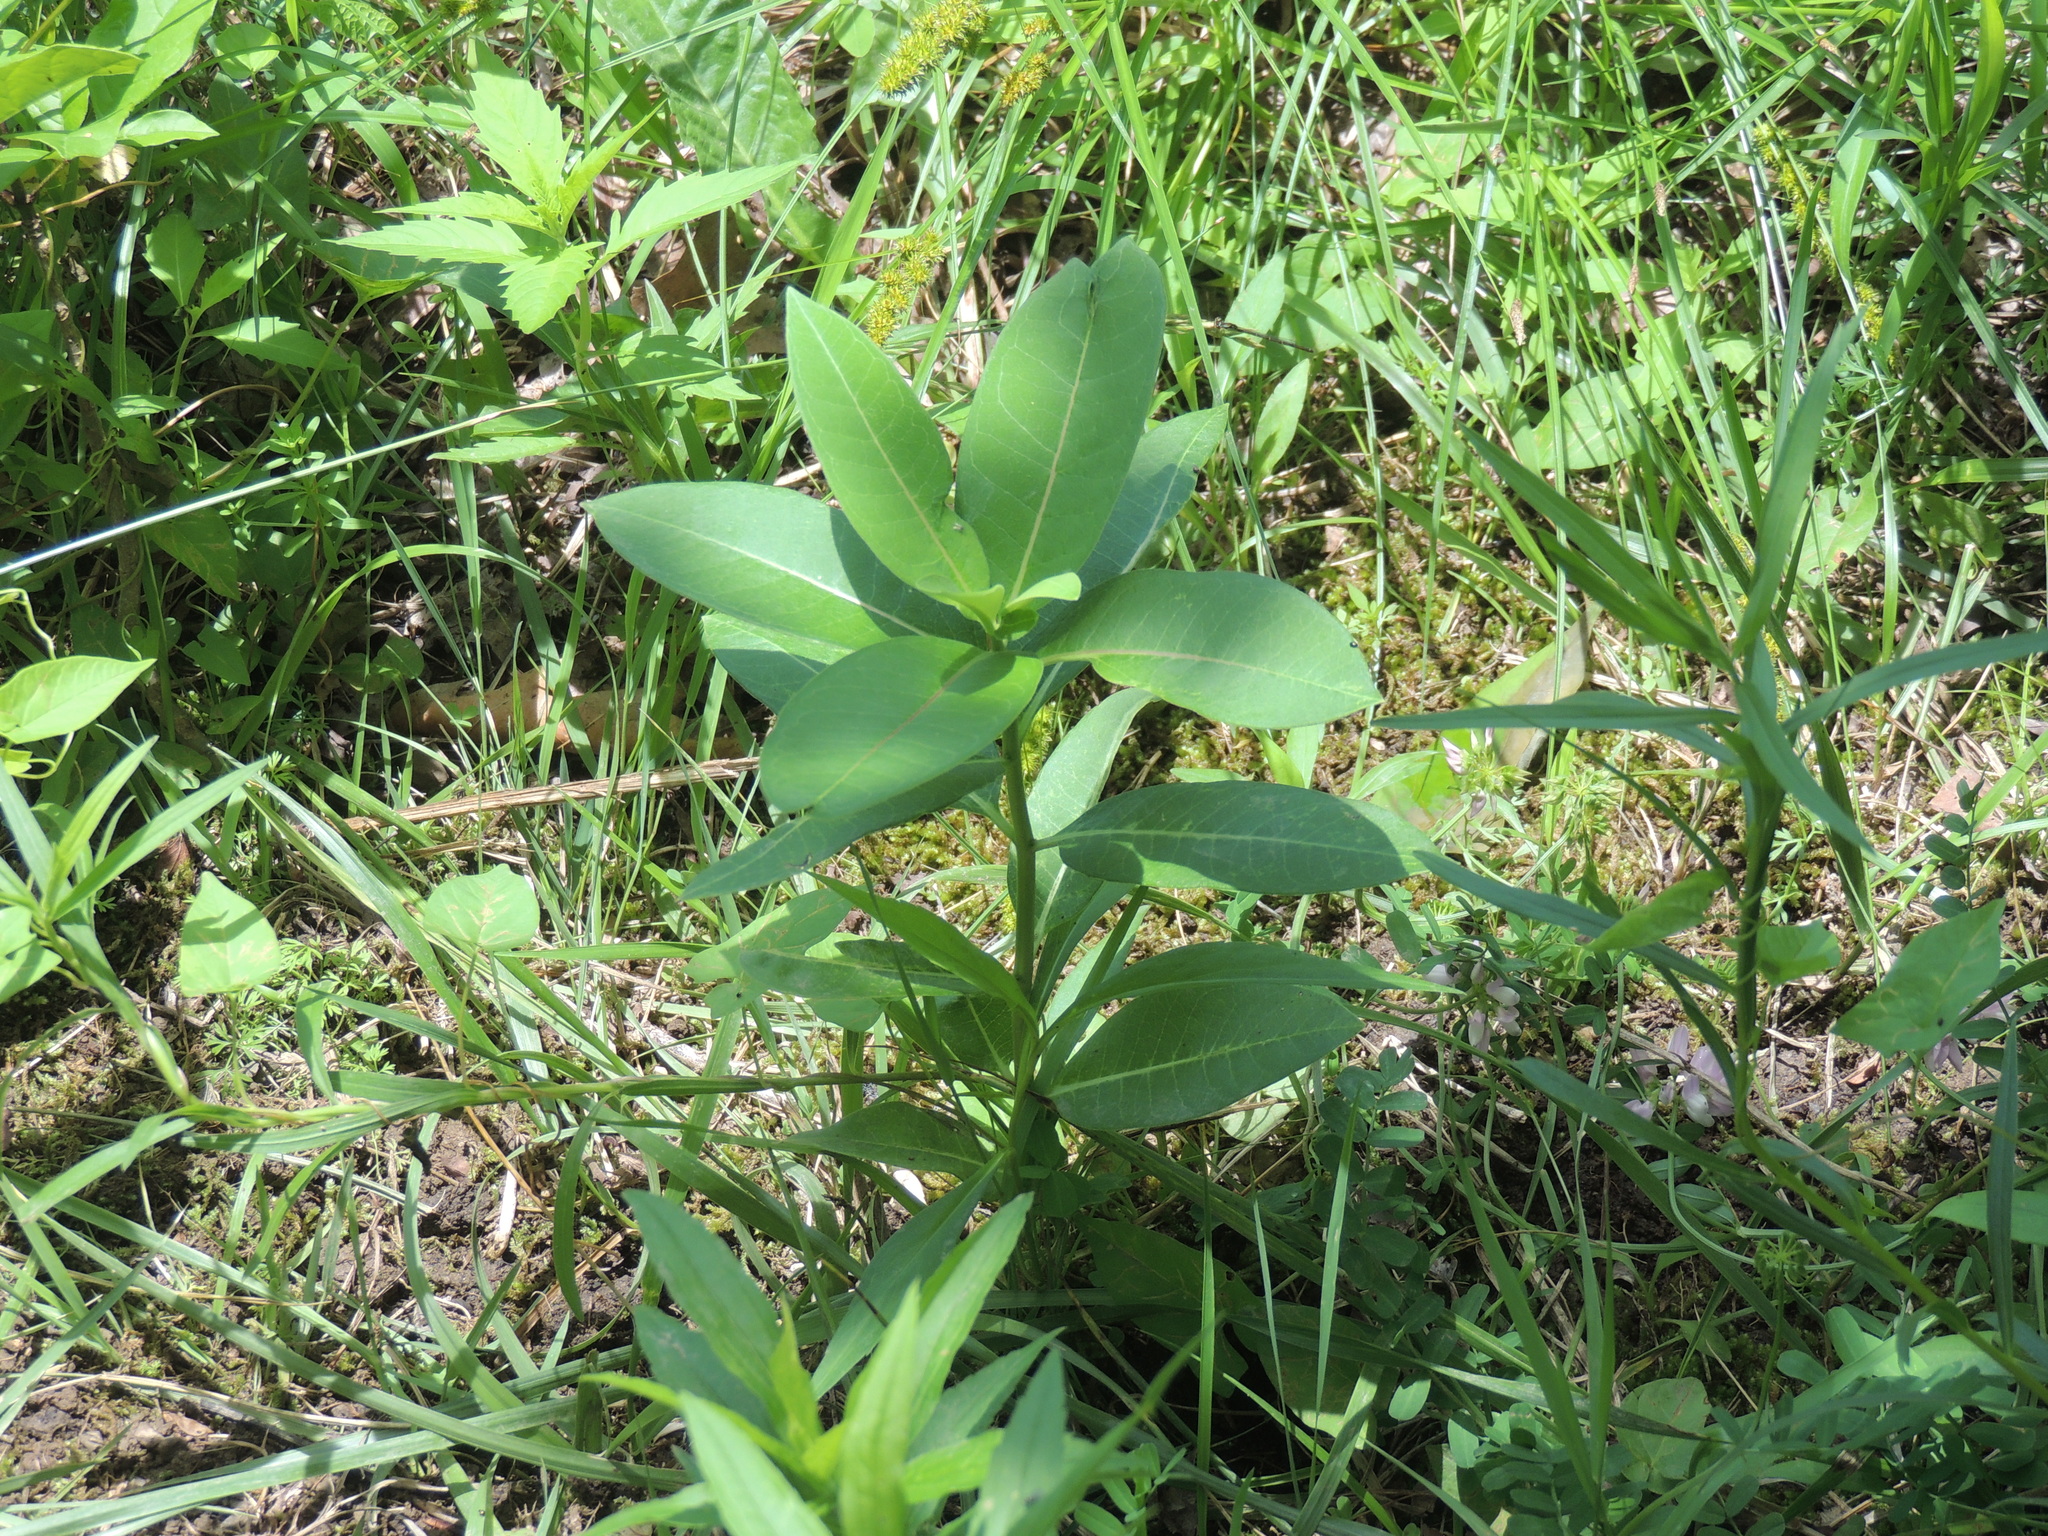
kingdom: Plantae
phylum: Tracheophyta
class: Magnoliopsida
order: Gentianales
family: Apocynaceae
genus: Asclepias
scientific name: Asclepias syriaca
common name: Common milkweed
